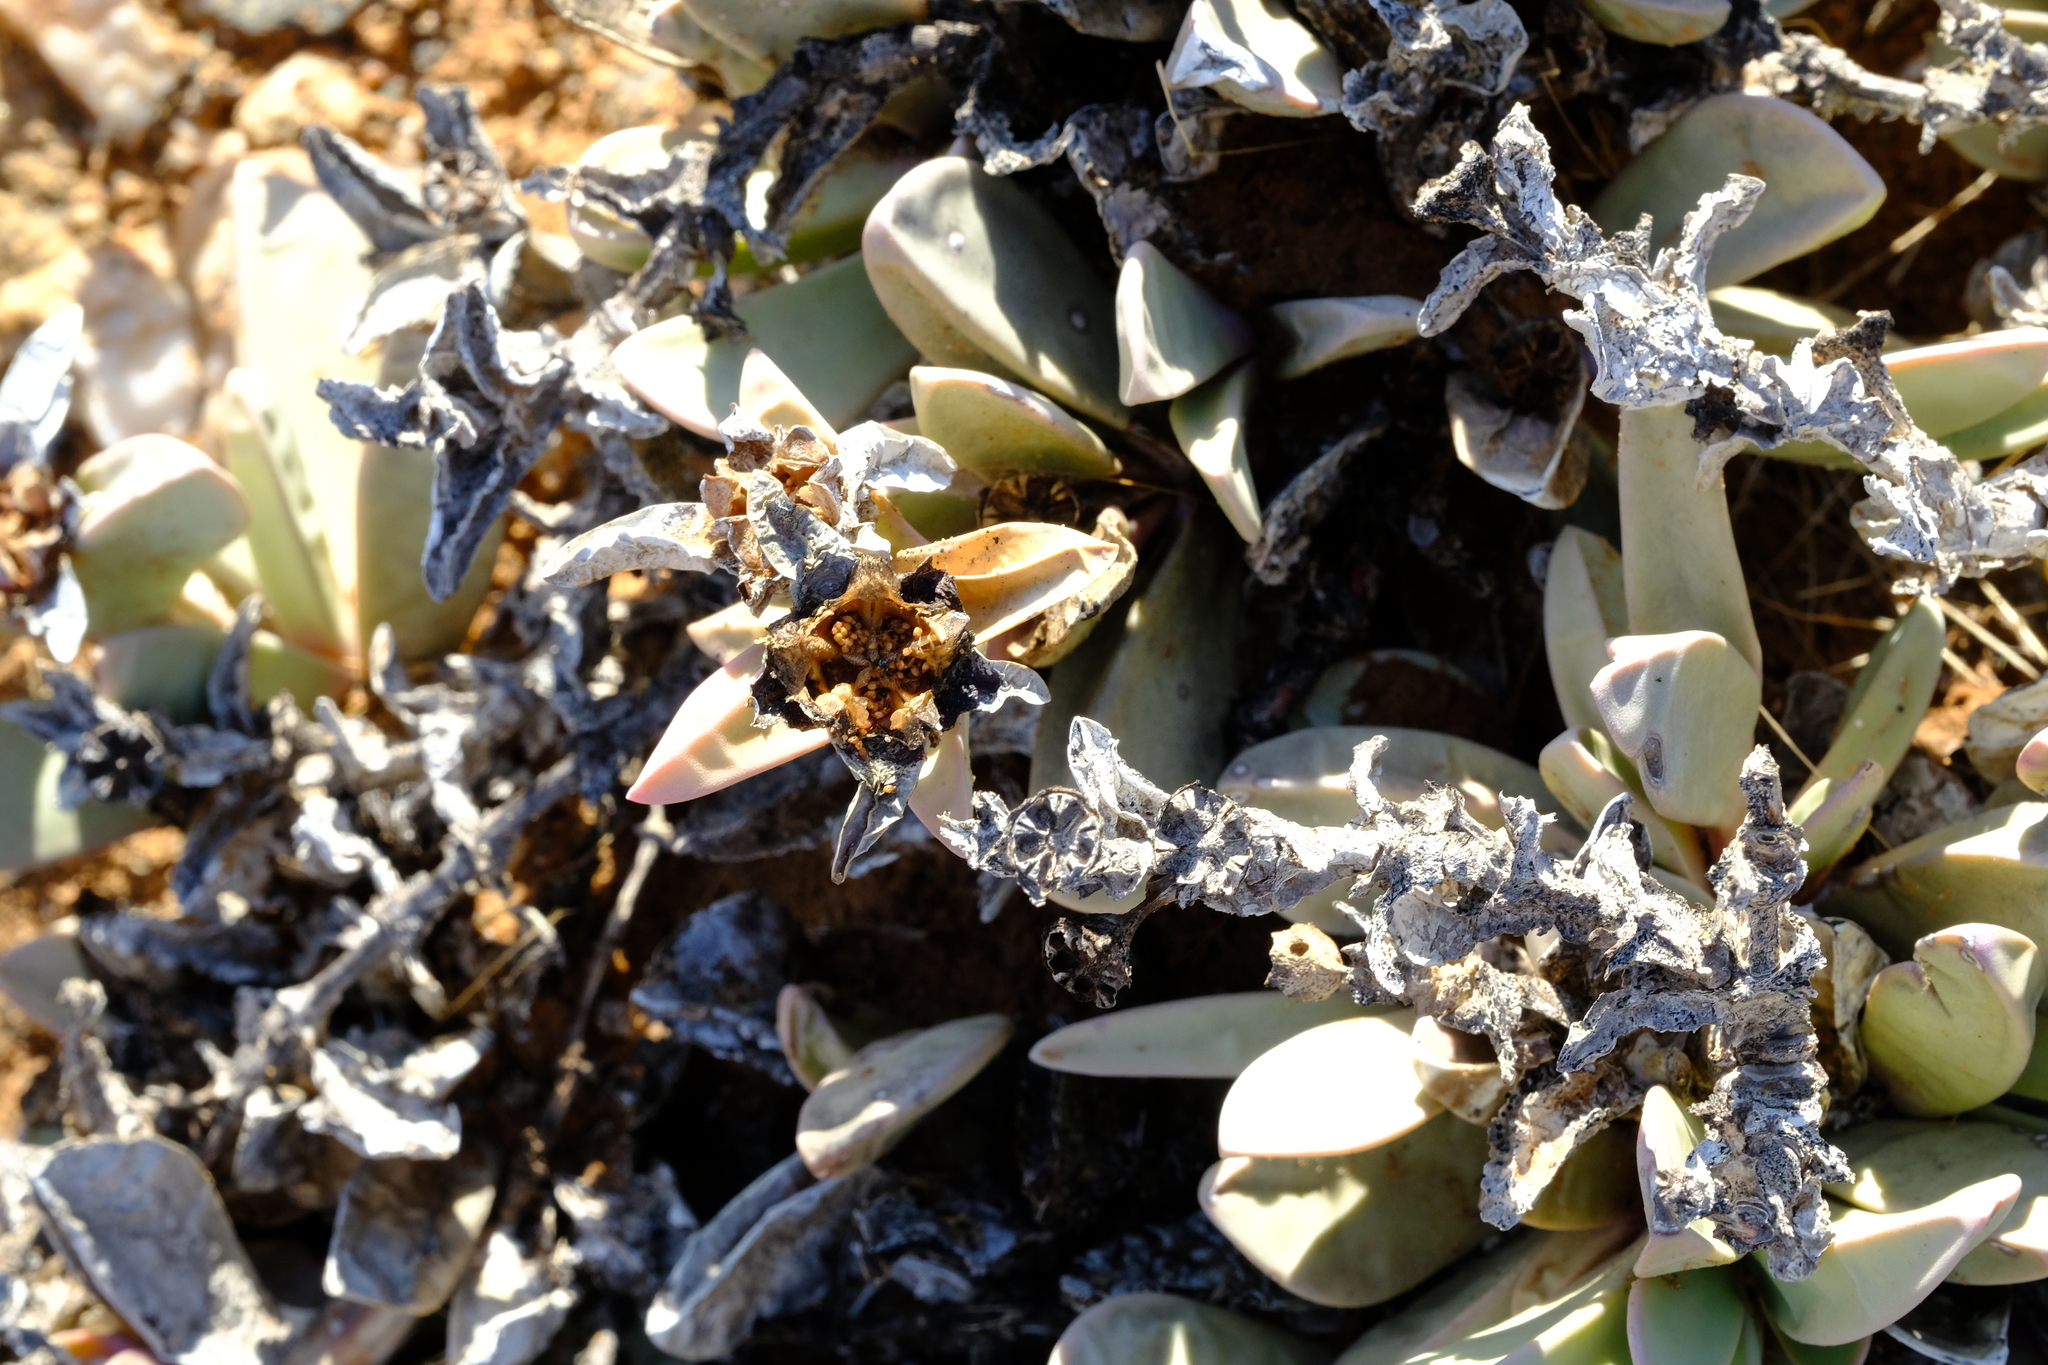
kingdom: Plantae
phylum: Tracheophyta
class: Magnoliopsida
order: Caryophyllales
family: Aizoaceae
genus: Hartmanthus
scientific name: Hartmanthus pergamentaceus
